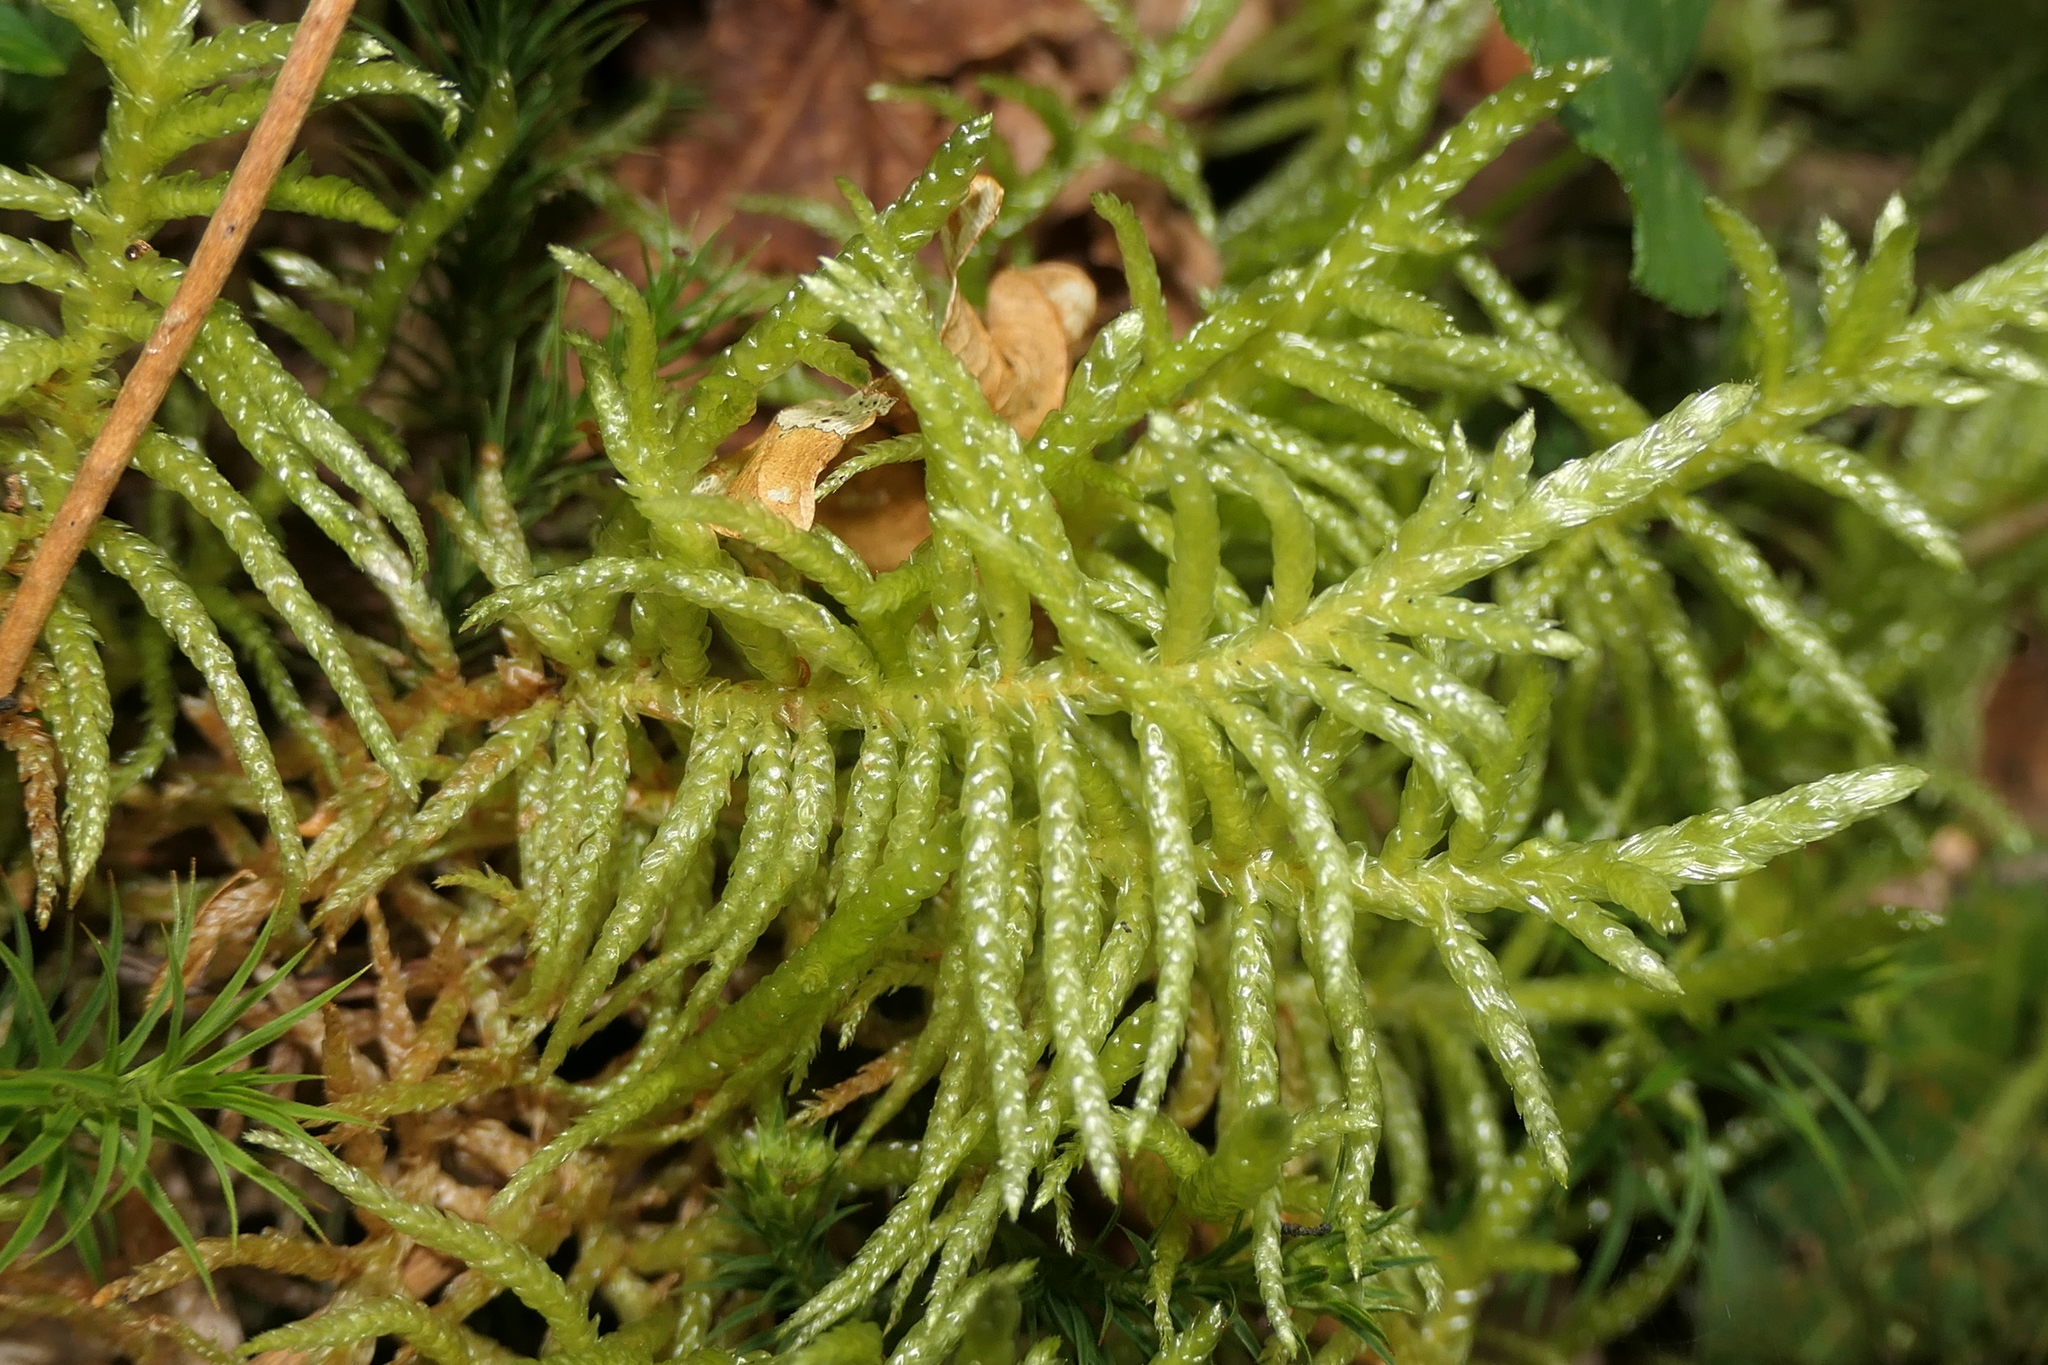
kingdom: Plantae
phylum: Bryophyta
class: Bryopsida
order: Hypnales
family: Brachytheciaceae
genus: Pseudoscleropodium
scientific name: Pseudoscleropodium purum
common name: Neat feather-moss
